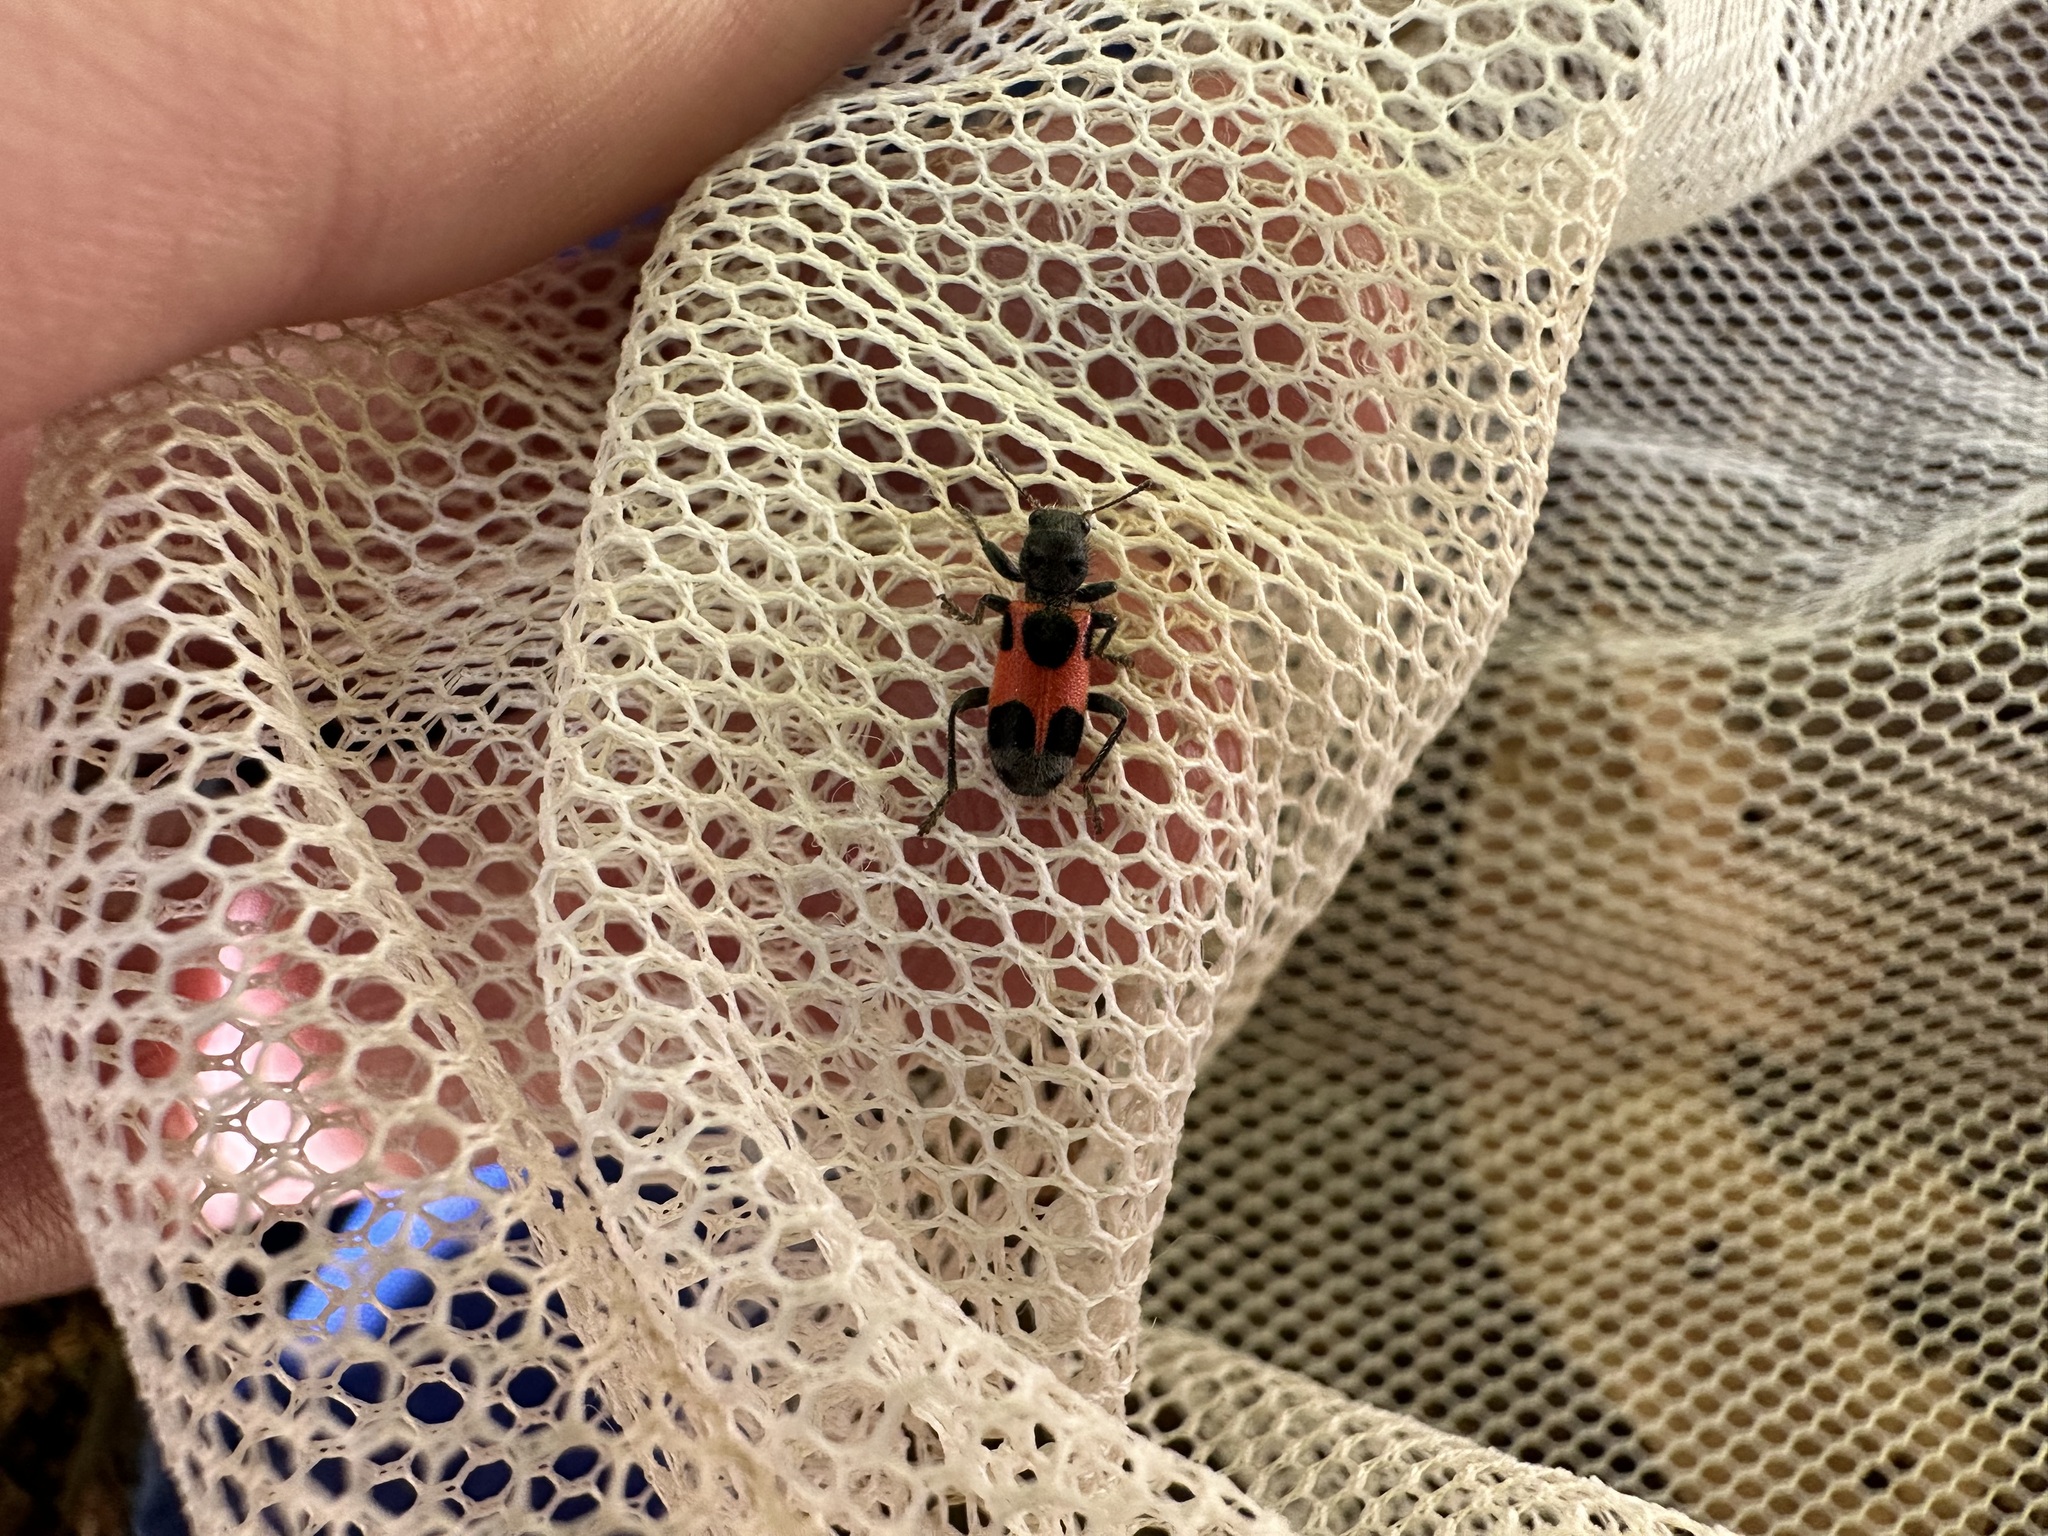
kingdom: Animalia
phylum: Arthropoda
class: Insecta
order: Coleoptera
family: Cleridae
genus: Enoclerus
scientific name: Enoclerus eximius
